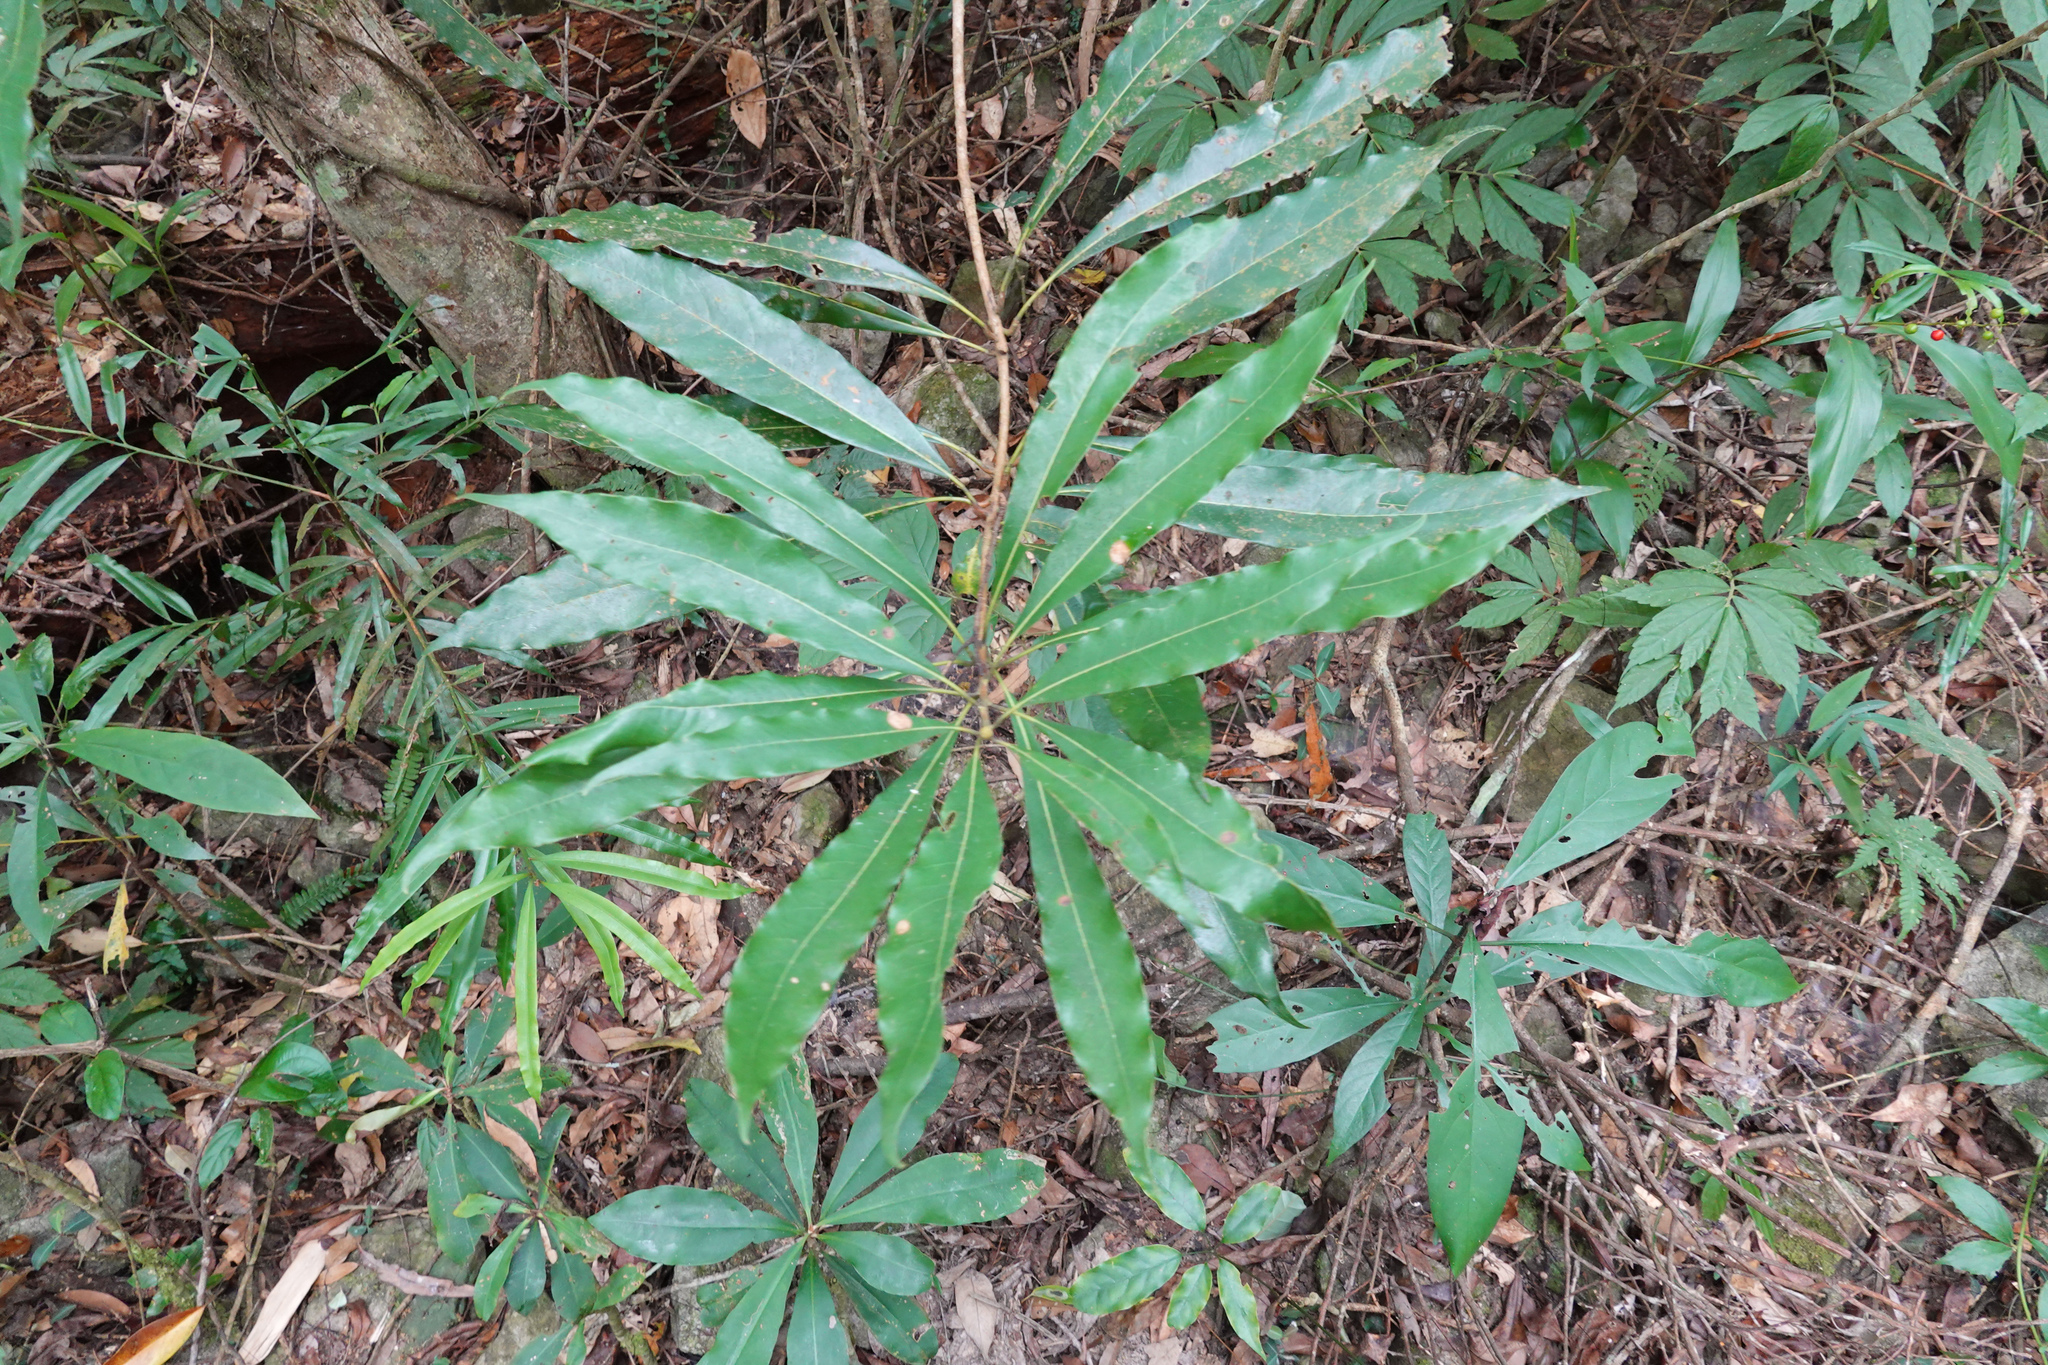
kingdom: Plantae
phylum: Tracheophyta
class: Magnoliopsida
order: Laurales
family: Lauraceae
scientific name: Lauraceae
